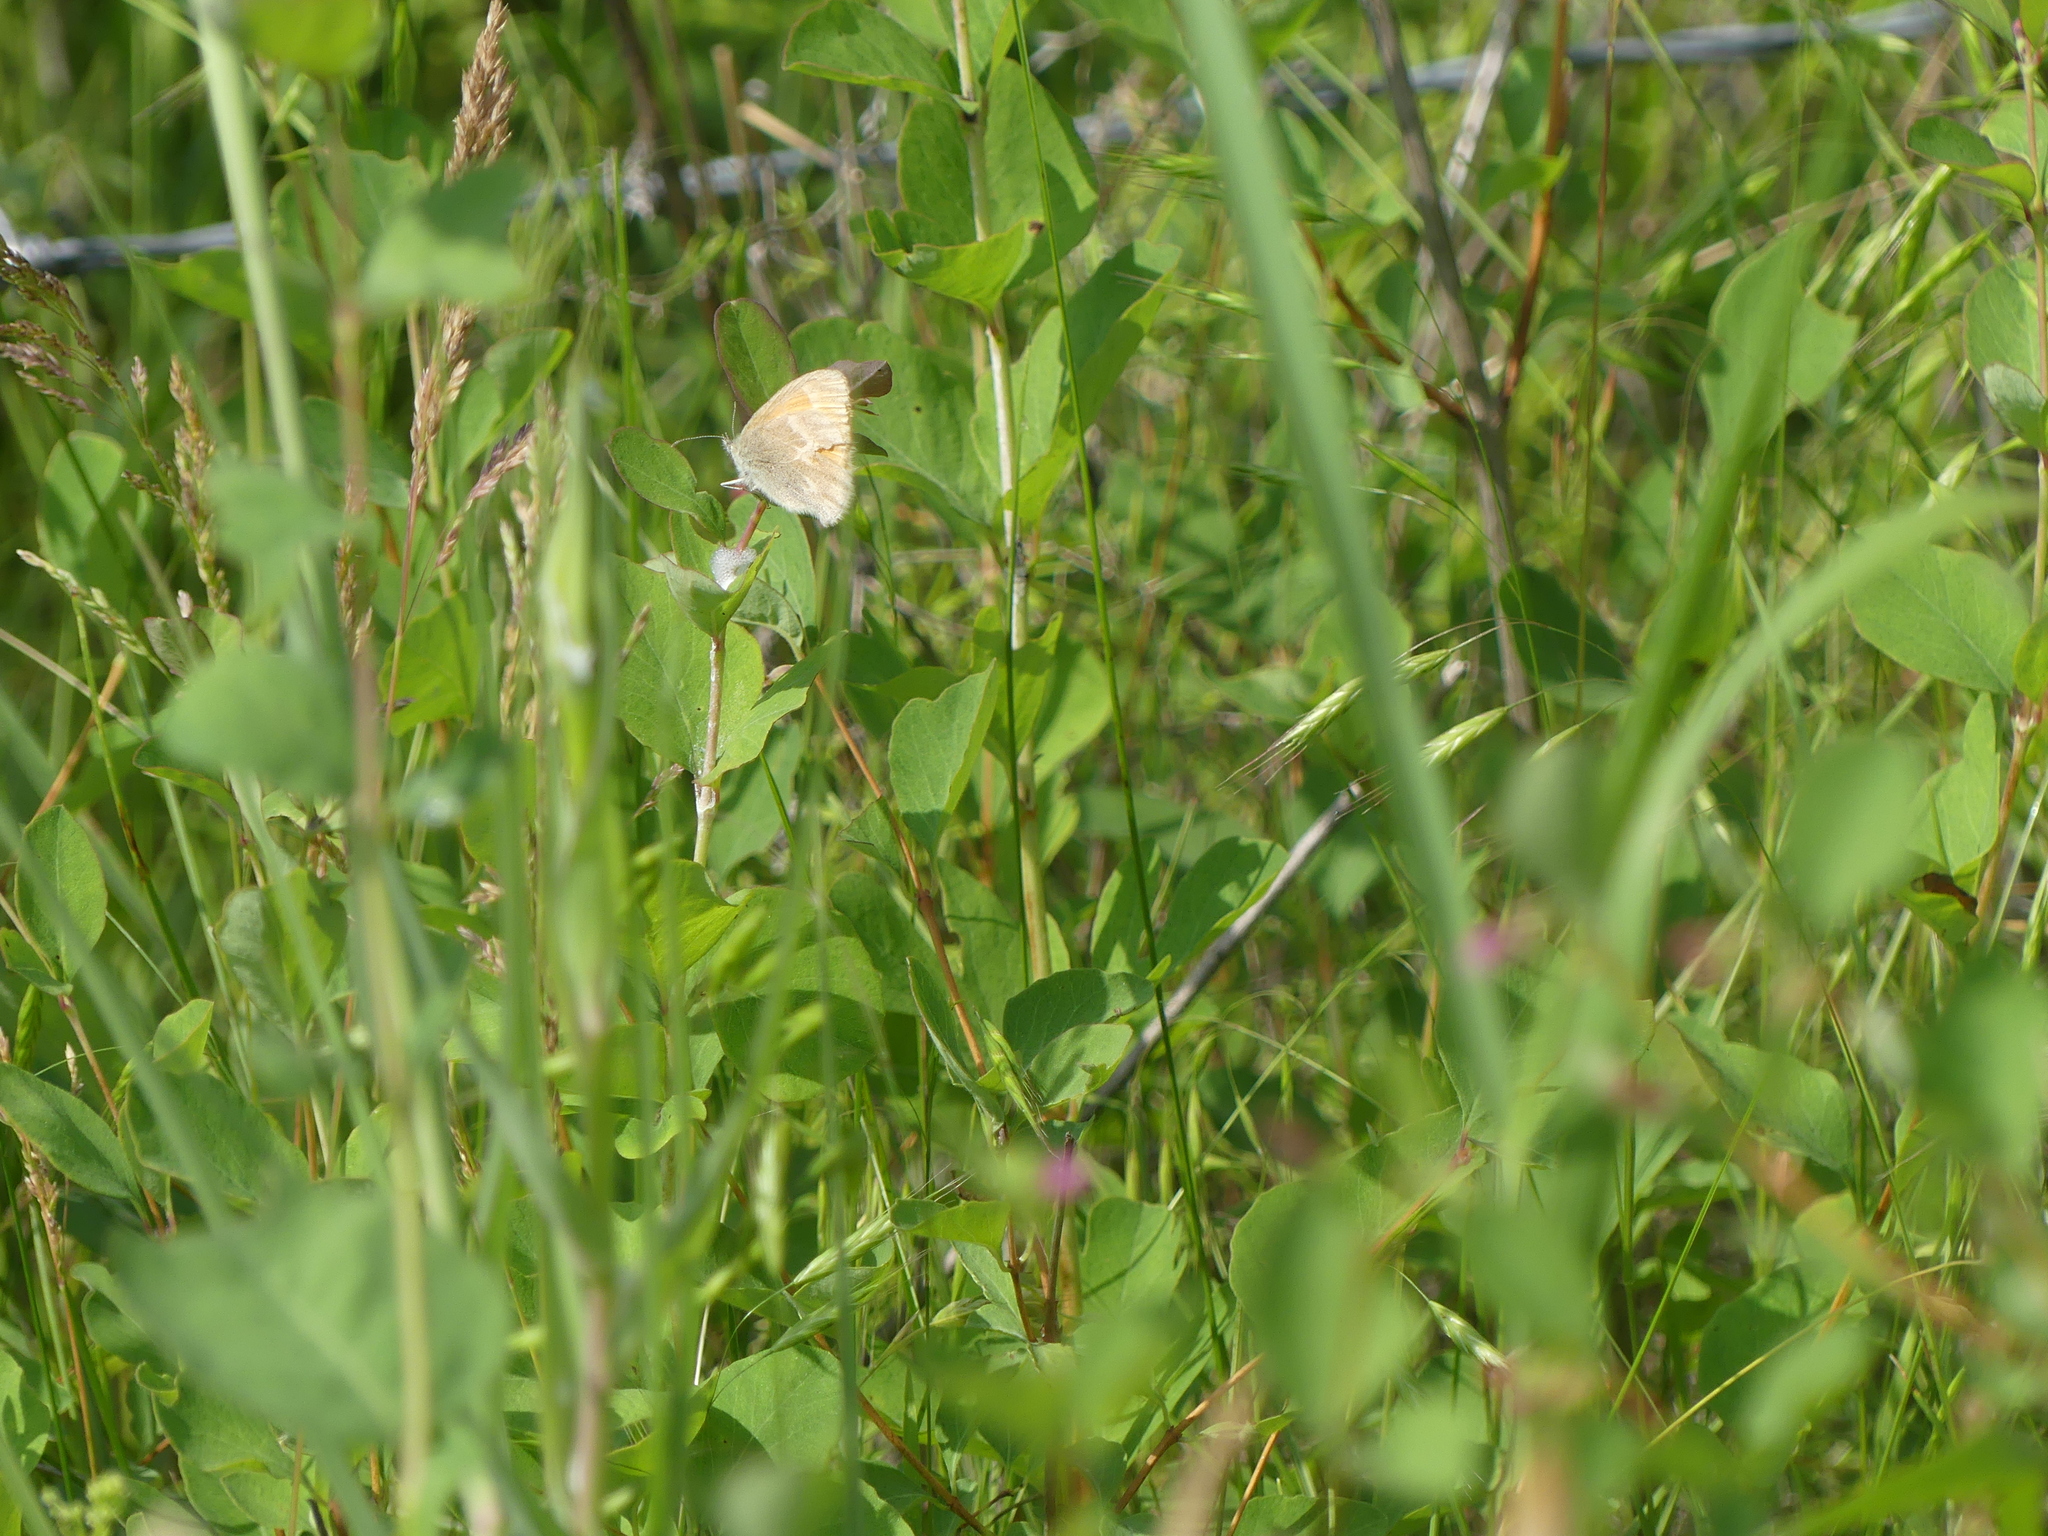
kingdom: Animalia
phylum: Arthropoda
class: Insecta
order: Lepidoptera
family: Nymphalidae
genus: Coenonympha
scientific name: Coenonympha california
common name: Common ringlet
